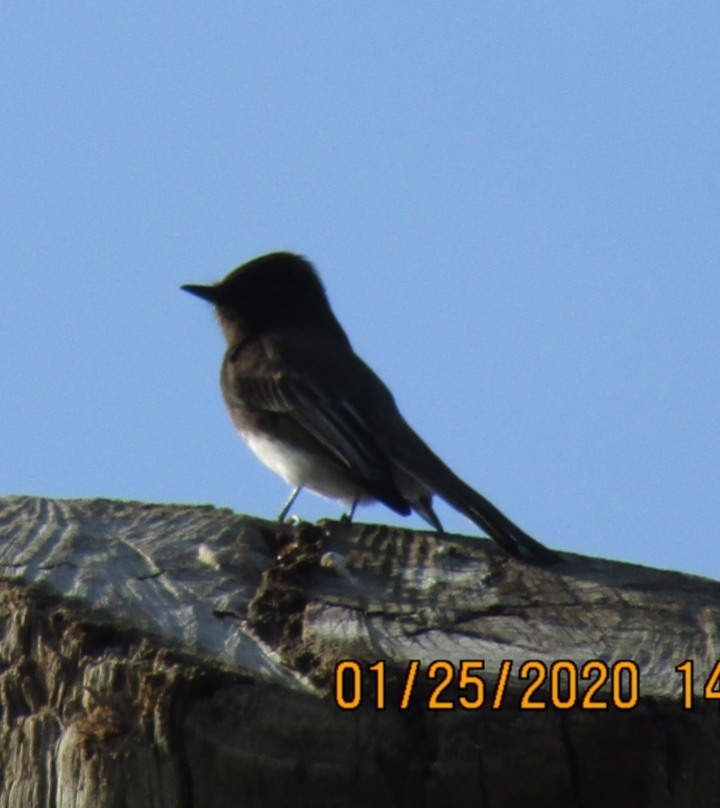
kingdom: Animalia
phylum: Chordata
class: Aves
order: Passeriformes
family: Tyrannidae
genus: Sayornis
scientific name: Sayornis nigricans
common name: Black phoebe
